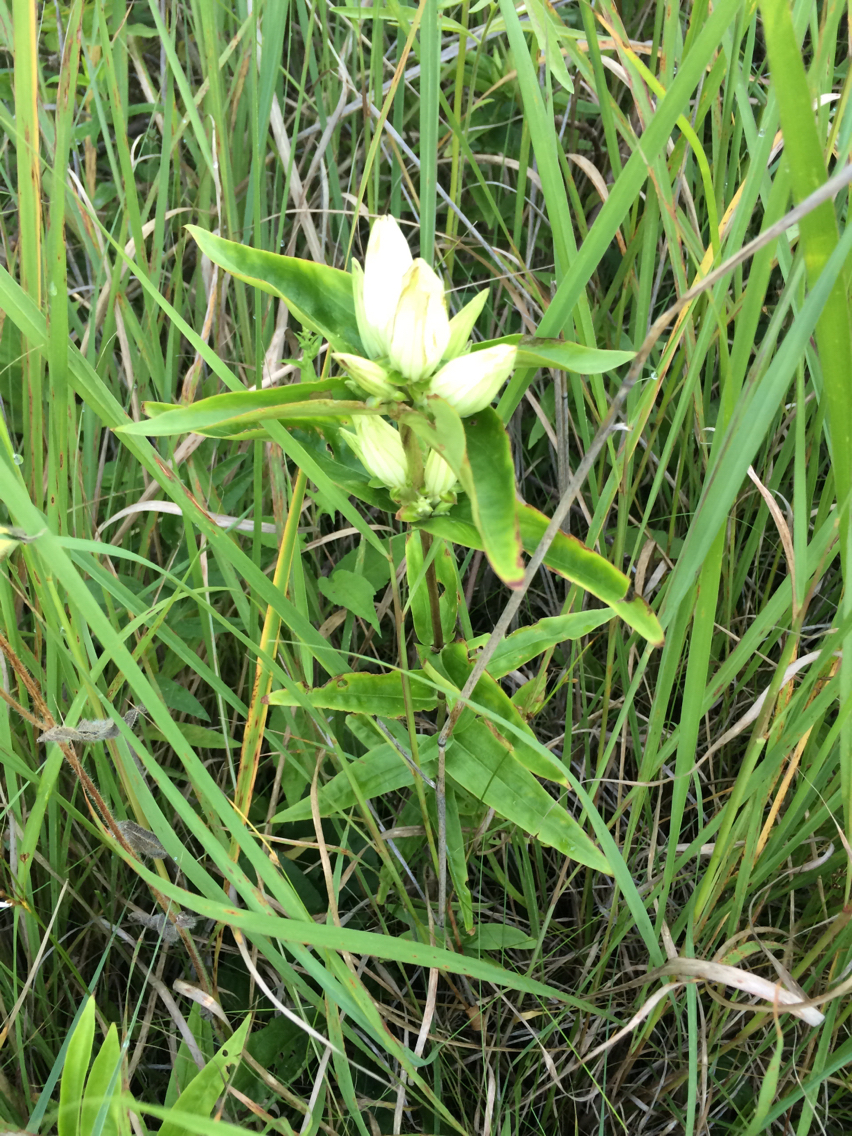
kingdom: Plantae
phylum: Tracheophyta
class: Magnoliopsida
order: Gentianales
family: Gentianaceae
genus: Gentiana
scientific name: Gentiana alba
